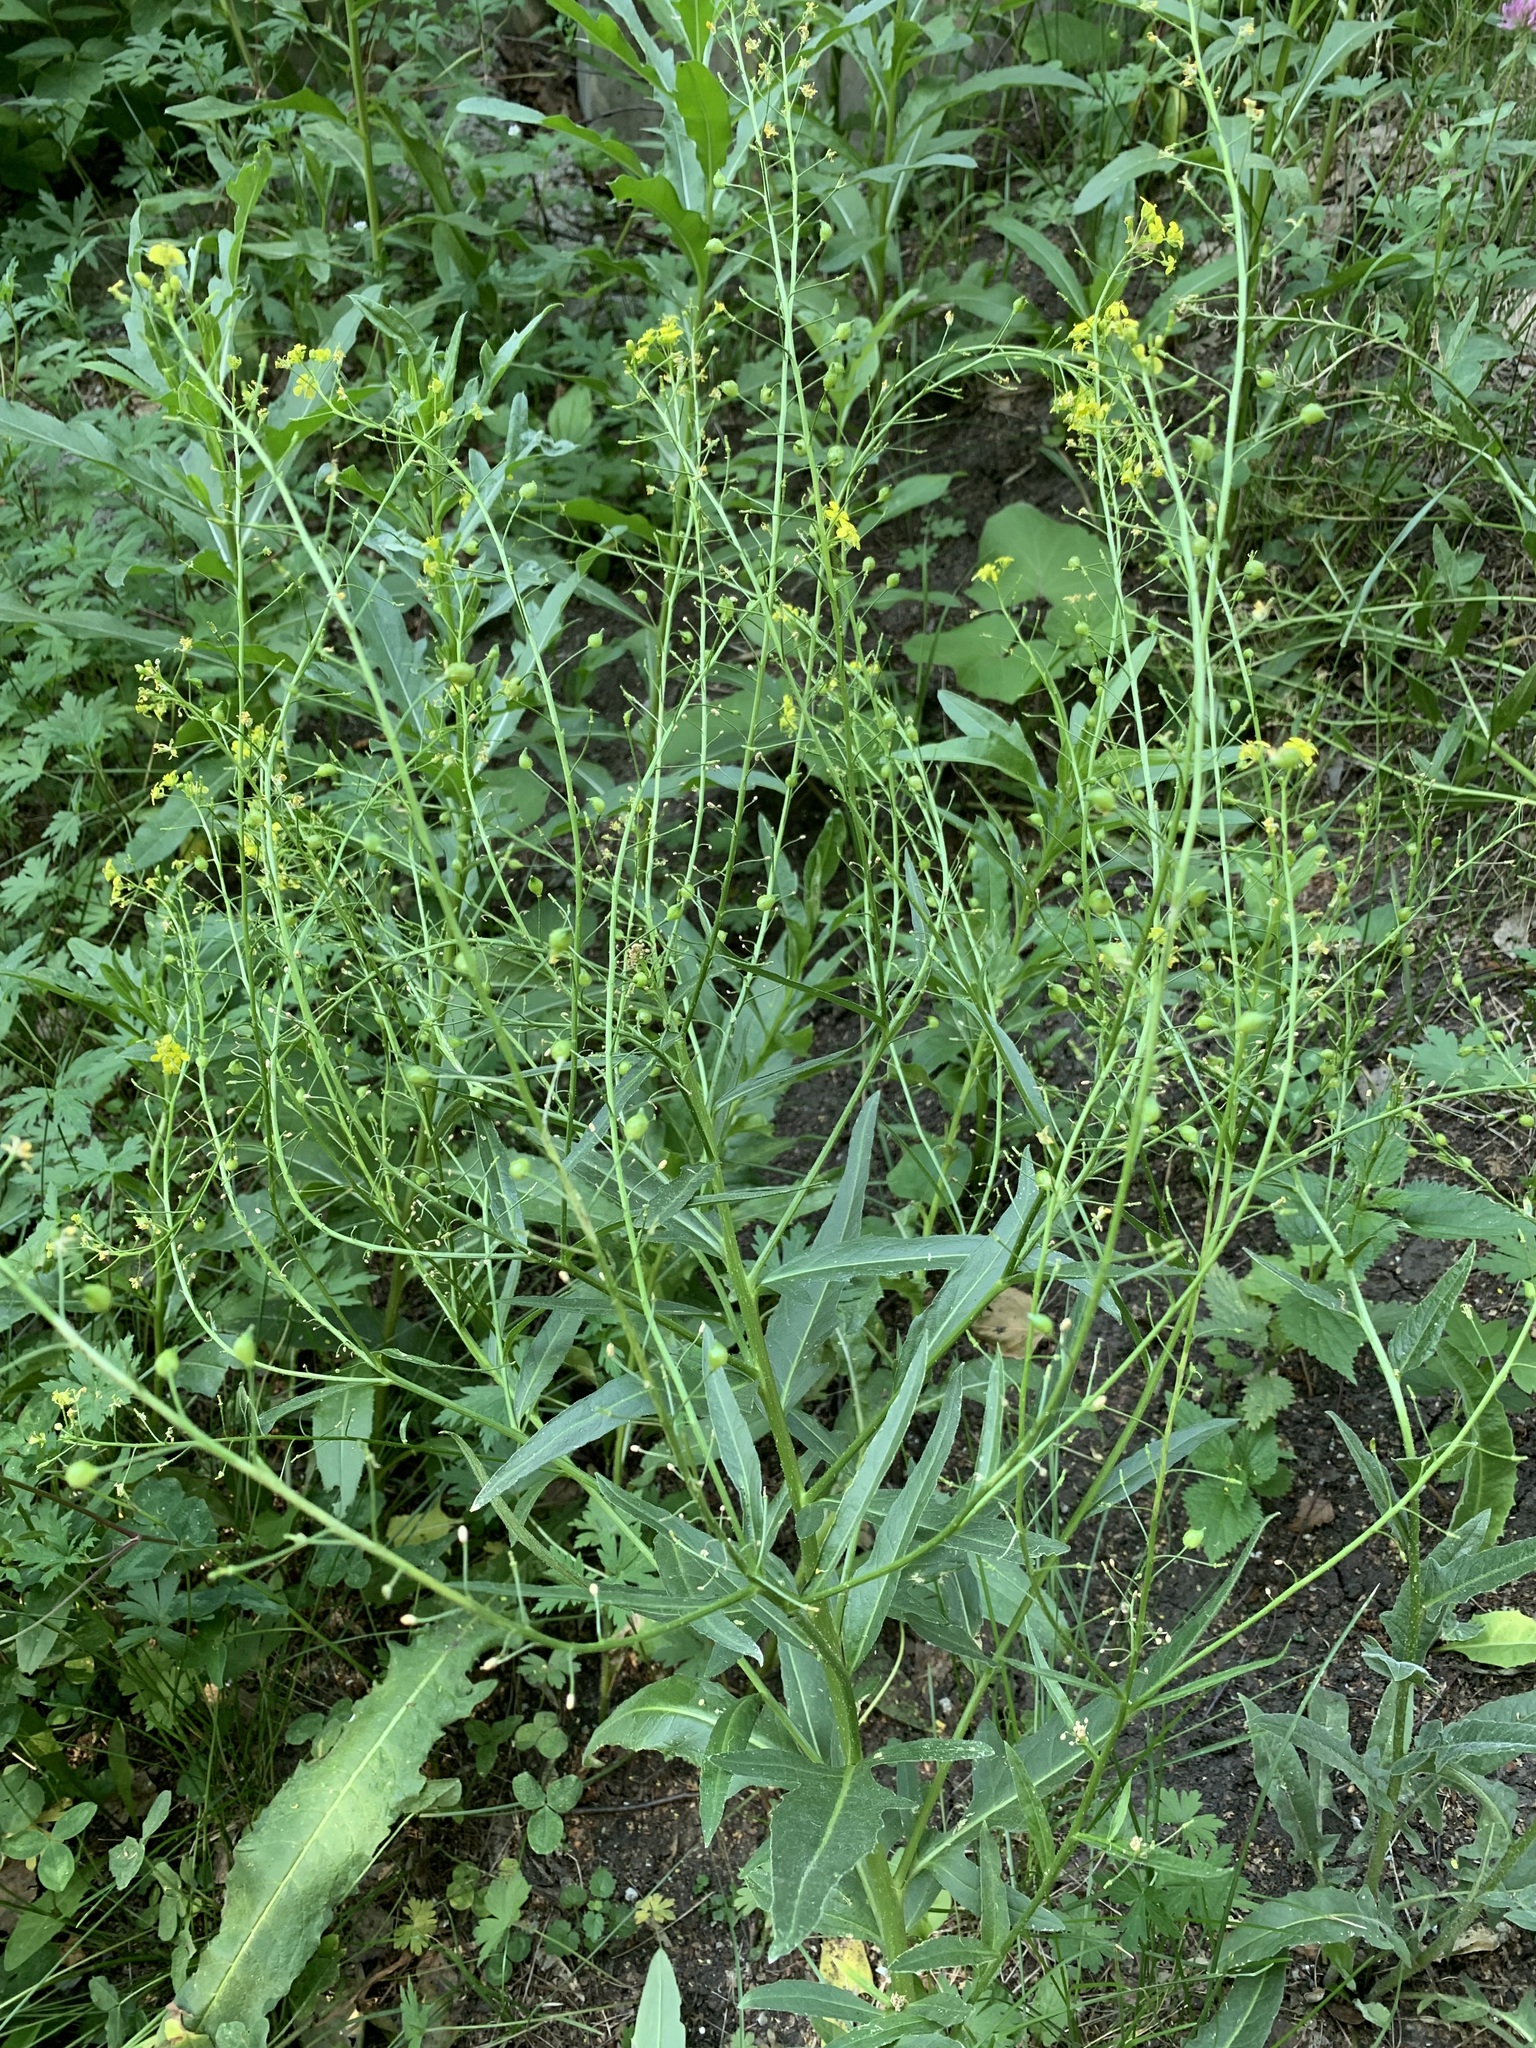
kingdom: Plantae
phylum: Tracheophyta
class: Magnoliopsida
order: Brassicales
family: Brassicaceae
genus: Bunias
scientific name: Bunias orientalis
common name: Warty-cabbage
